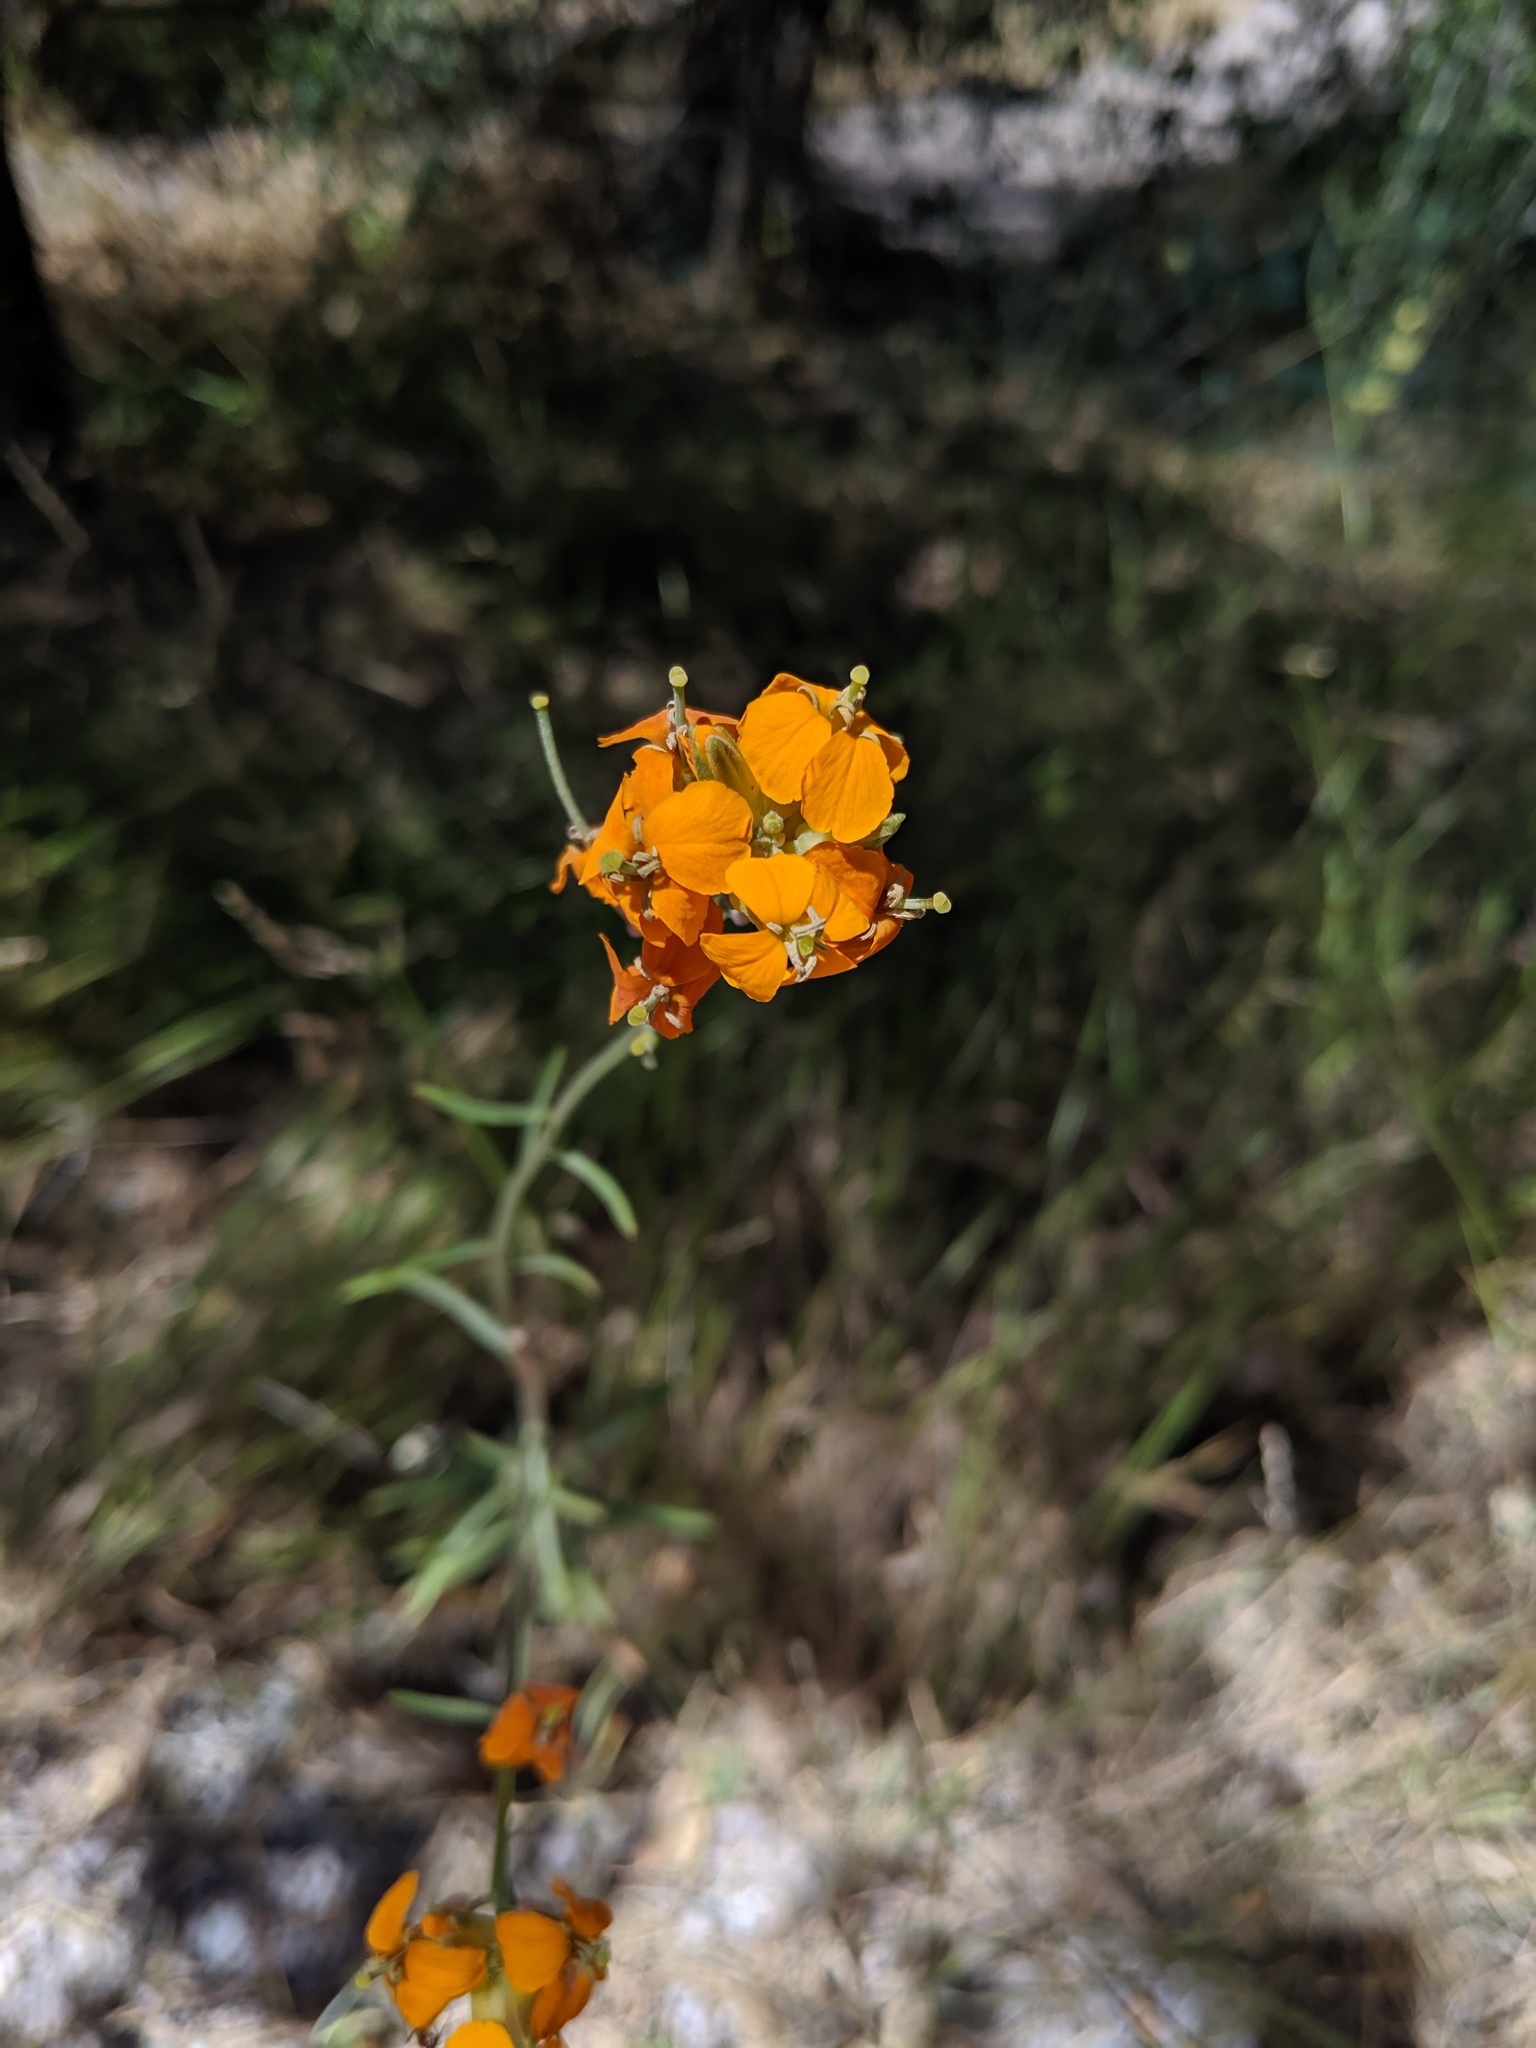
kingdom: Plantae
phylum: Tracheophyta
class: Magnoliopsida
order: Brassicales
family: Brassicaceae
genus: Erysimum
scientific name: Erysimum capitatum
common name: Western wallflower
